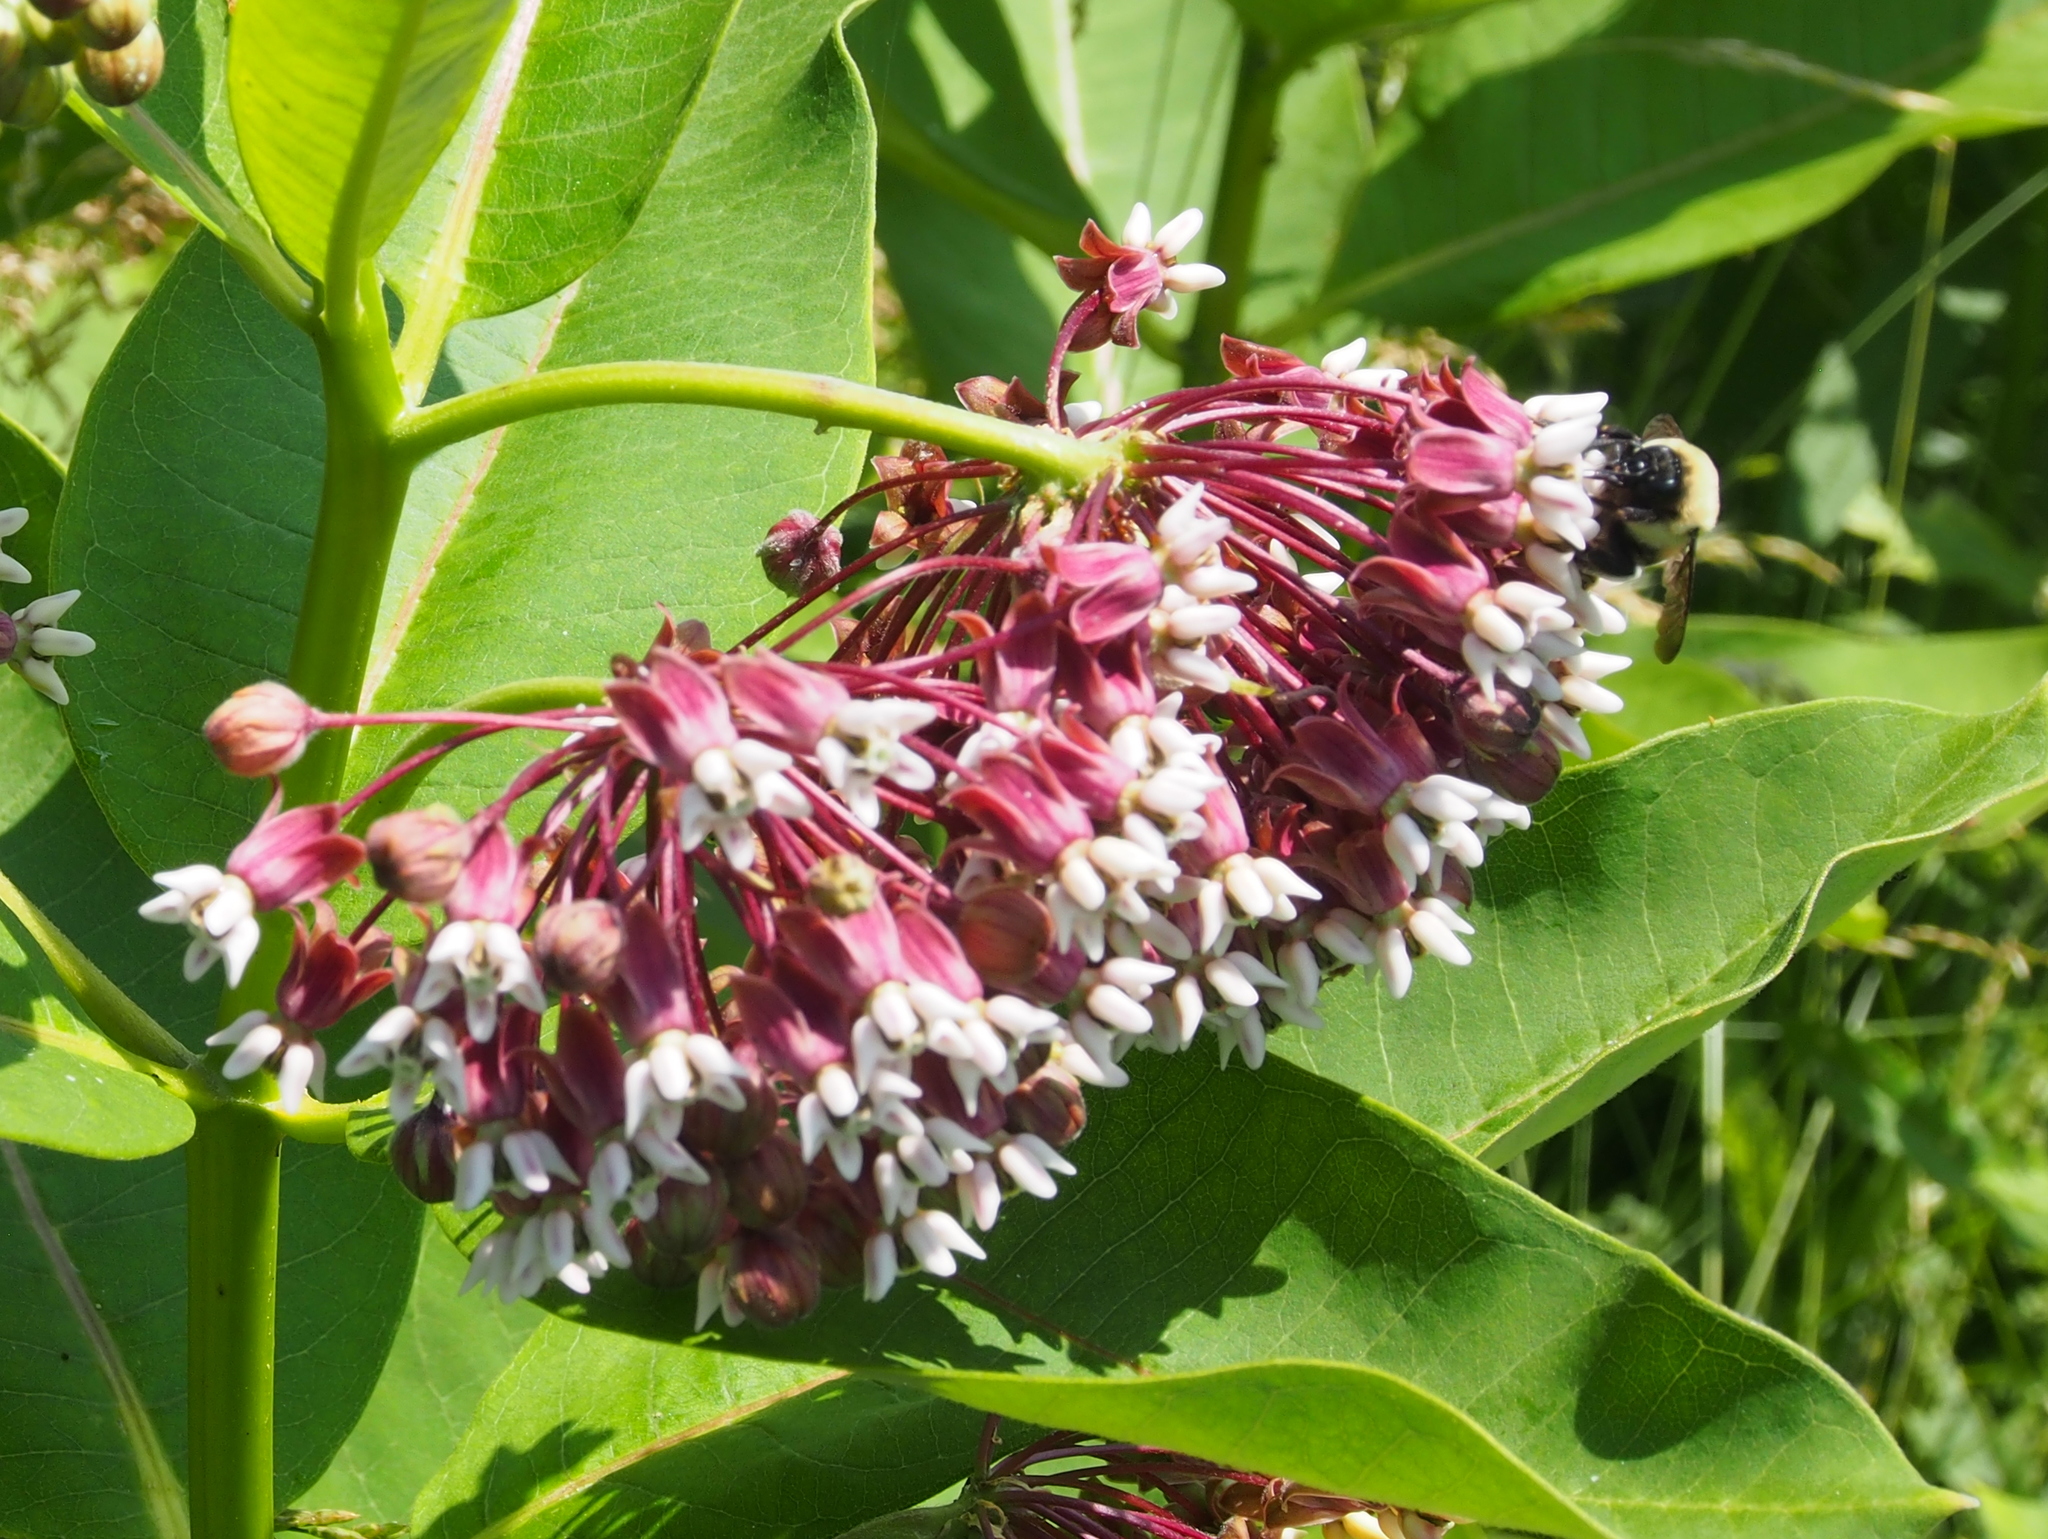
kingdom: Plantae
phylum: Tracheophyta
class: Magnoliopsida
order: Gentianales
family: Apocynaceae
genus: Asclepias
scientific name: Asclepias syriaca
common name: Common milkweed
